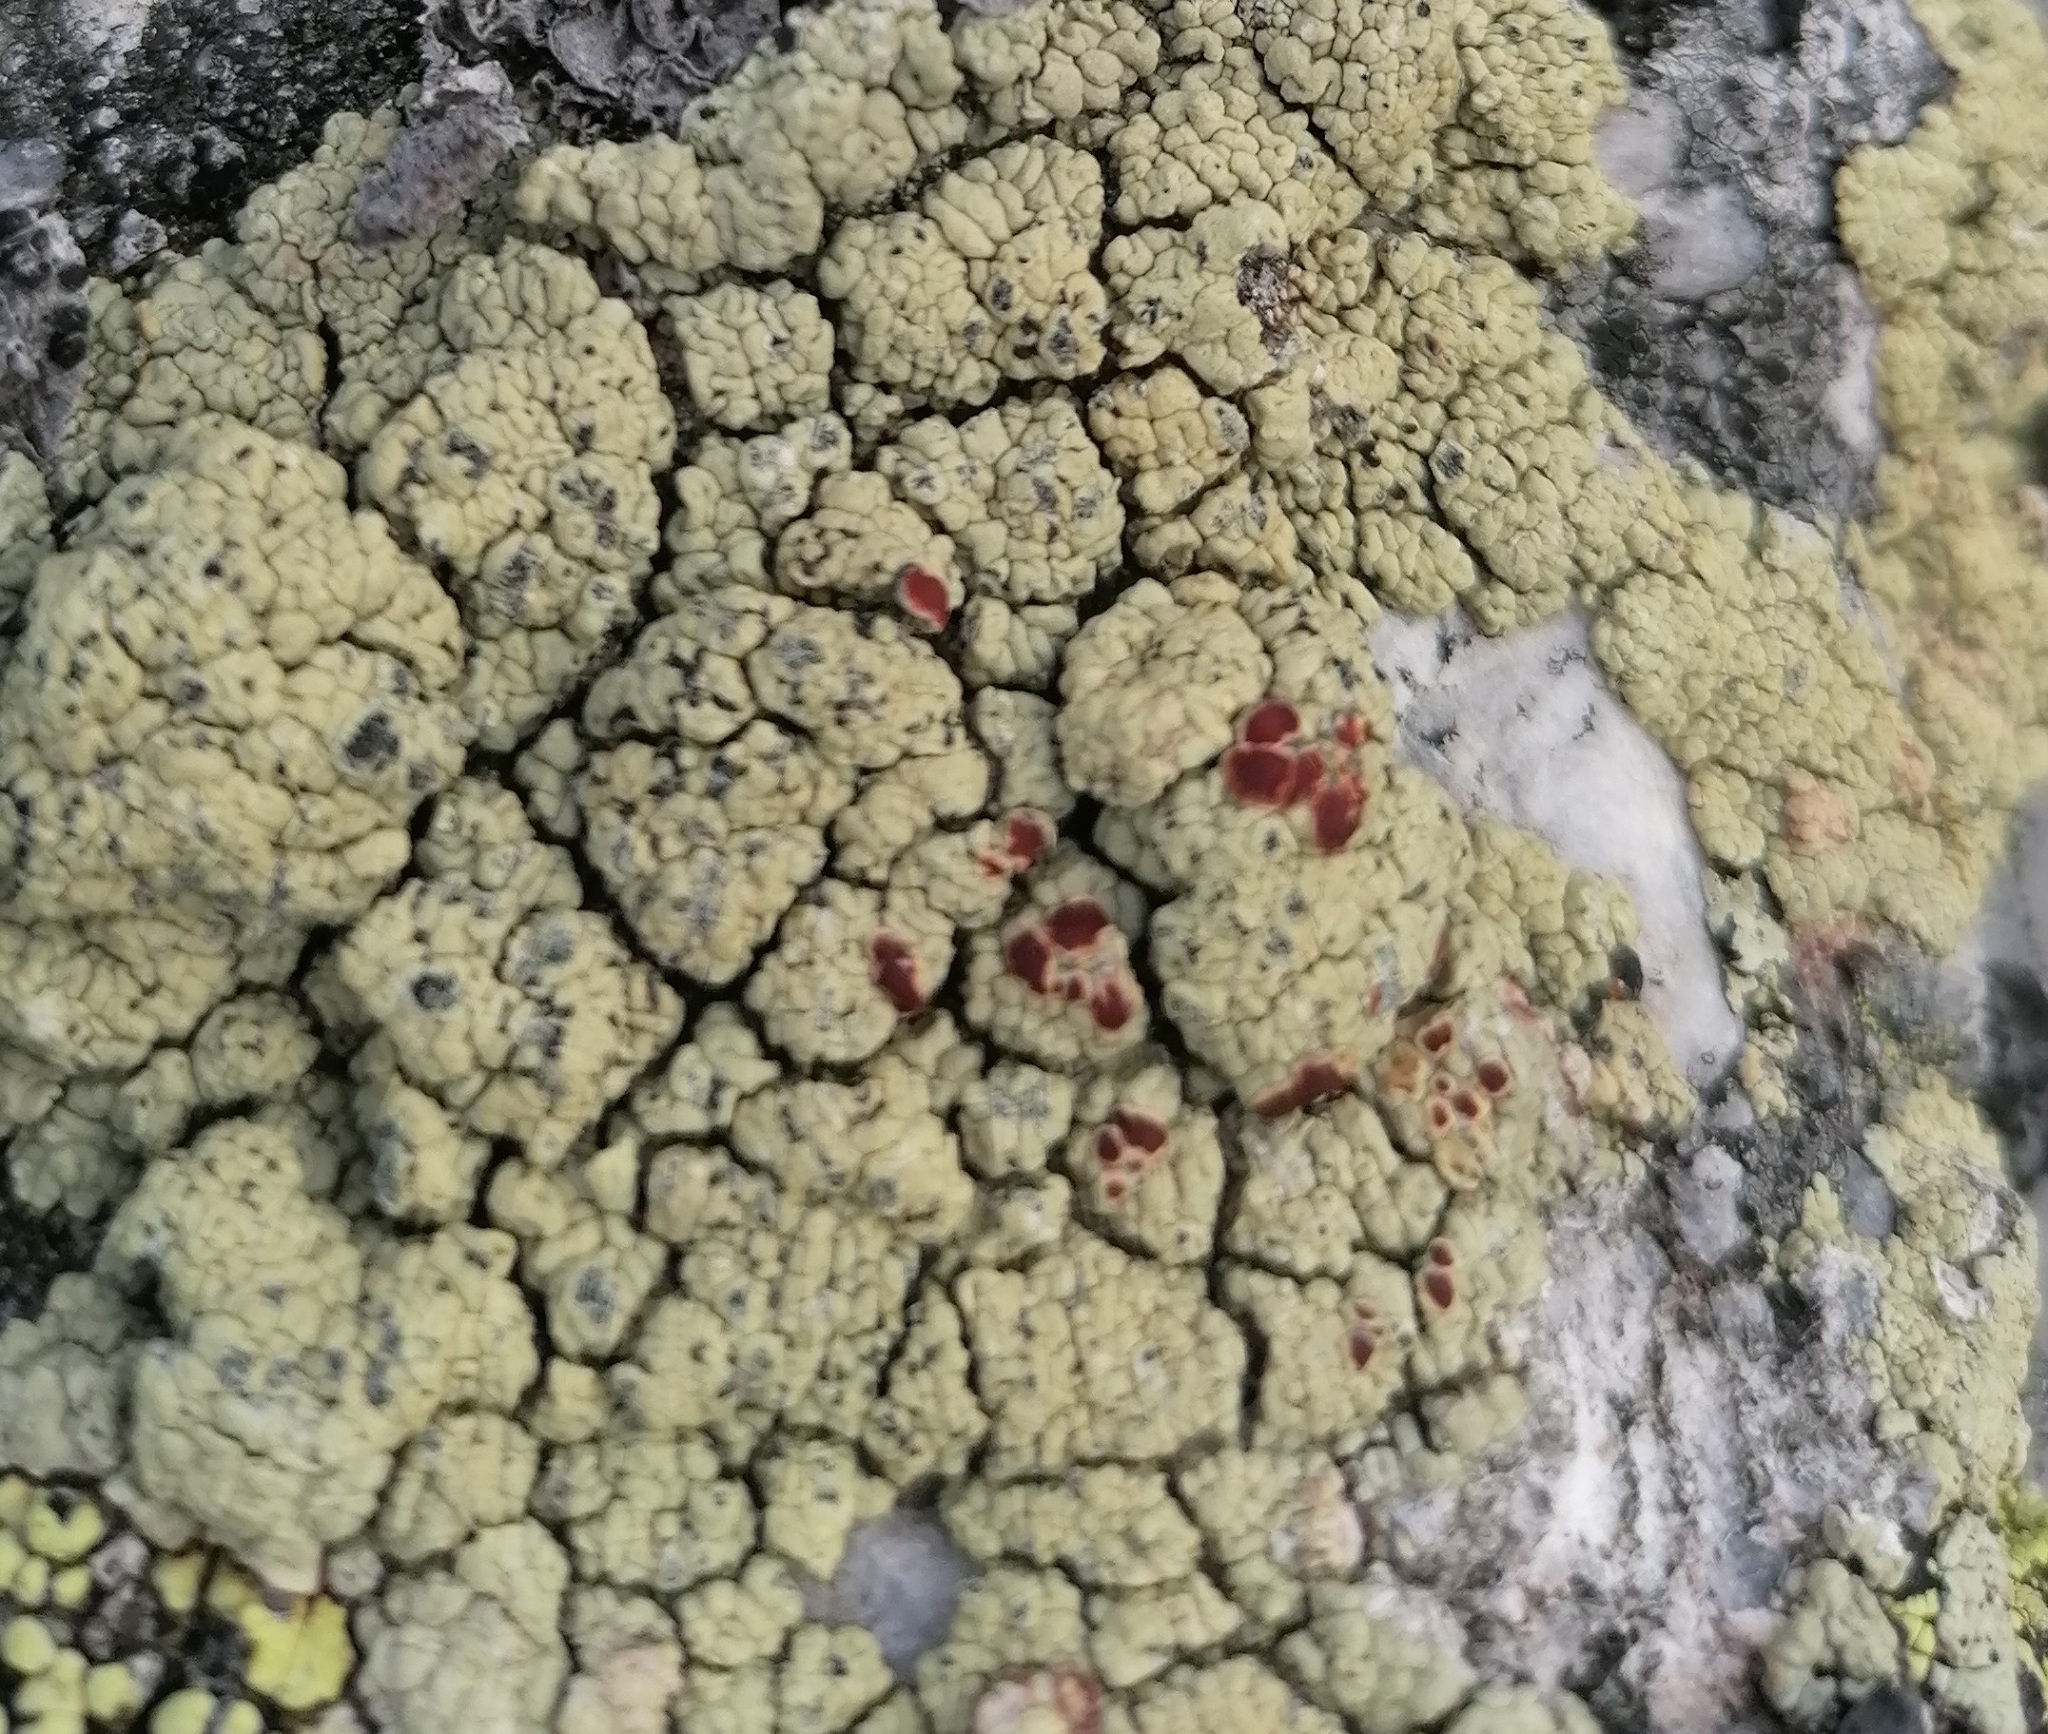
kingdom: Fungi
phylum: Ascomycota
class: Lecanoromycetes
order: Umbilicariales
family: Ophioparmaceae
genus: Ophioparma
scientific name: Ophioparma ventosa
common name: Blood-spot
